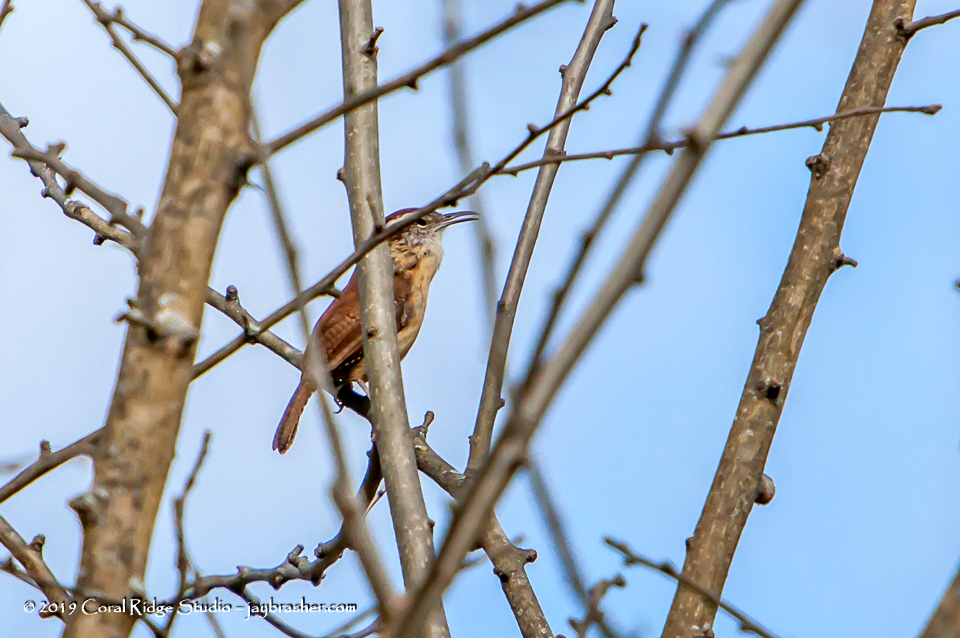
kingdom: Animalia
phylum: Chordata
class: Aves
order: Passeriformes
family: Troglodytidae
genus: Thryothorus
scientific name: Thryothorus ludovicianus
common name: Carolina wren
